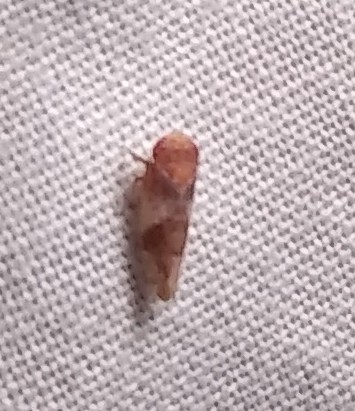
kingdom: Animalia
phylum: Arthropoda
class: Insecta
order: Hemiptera
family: Cicadellidae
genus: Norvellina
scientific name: Norvellina helenae
